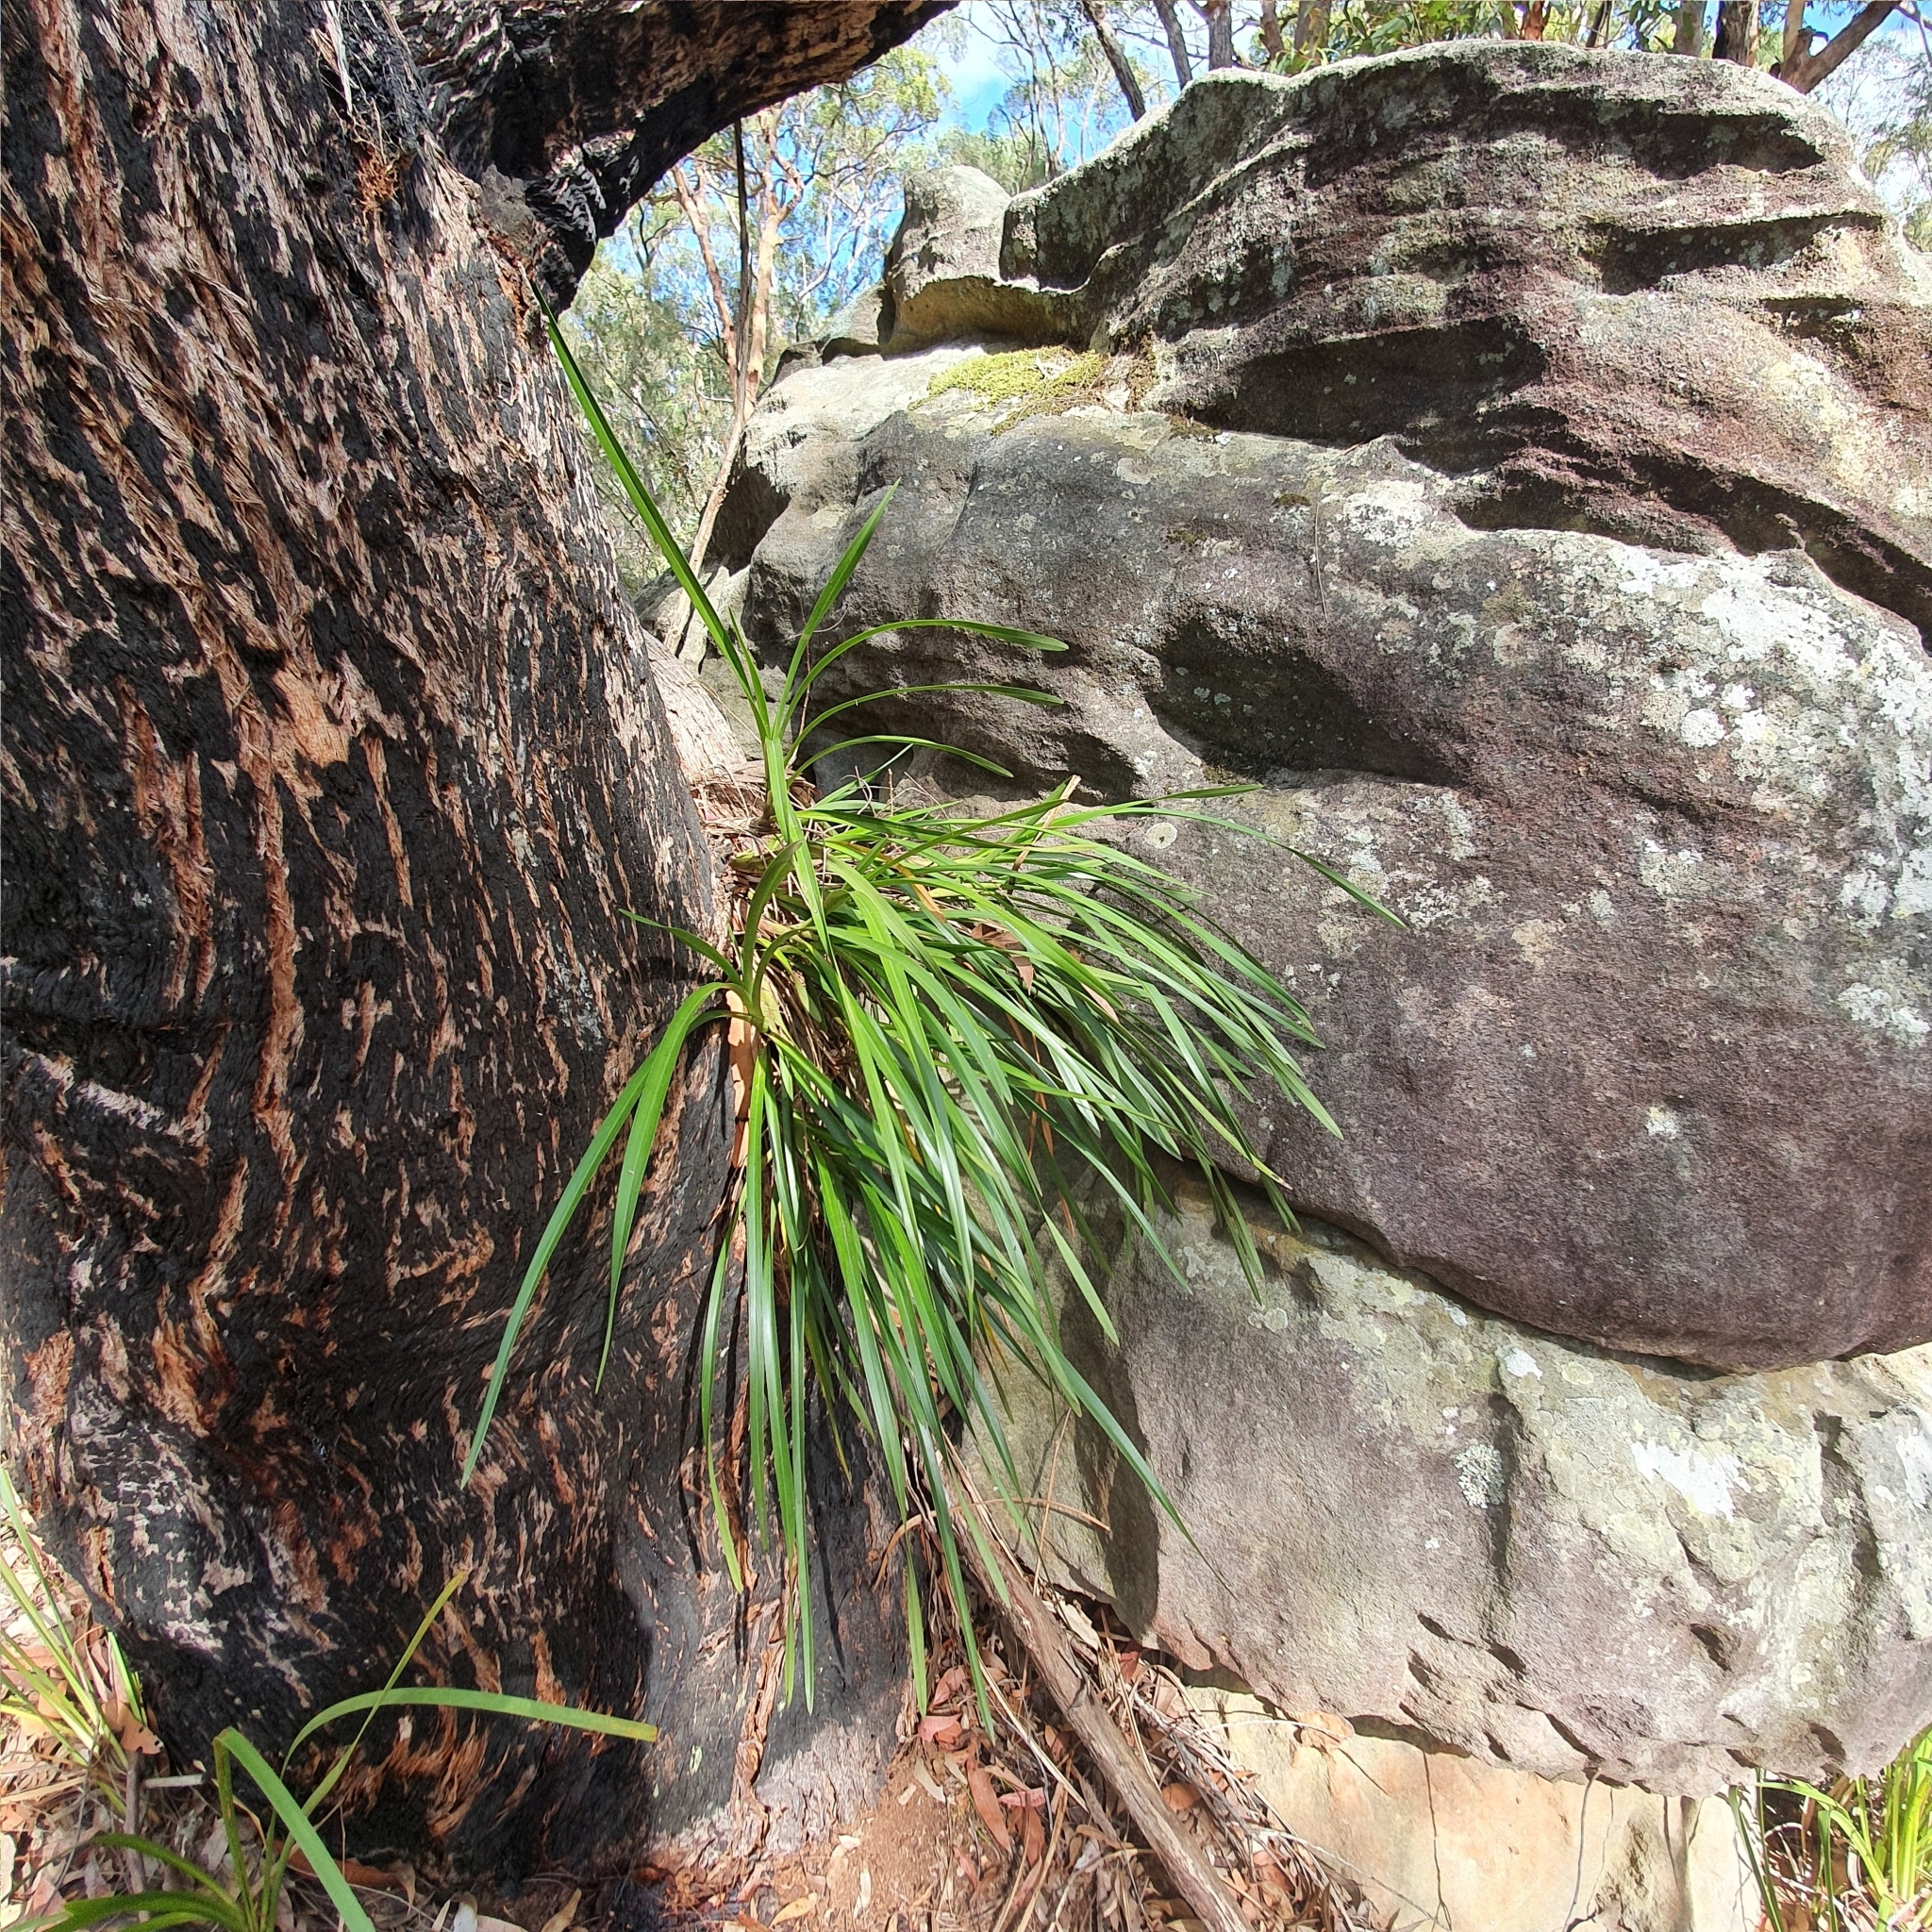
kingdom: Plantae
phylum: Tracheophyta
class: Liliopsida
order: Asparagales
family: Orchidaceae
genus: Cymbidium
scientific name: Cymbidium suave
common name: Snake orchid
